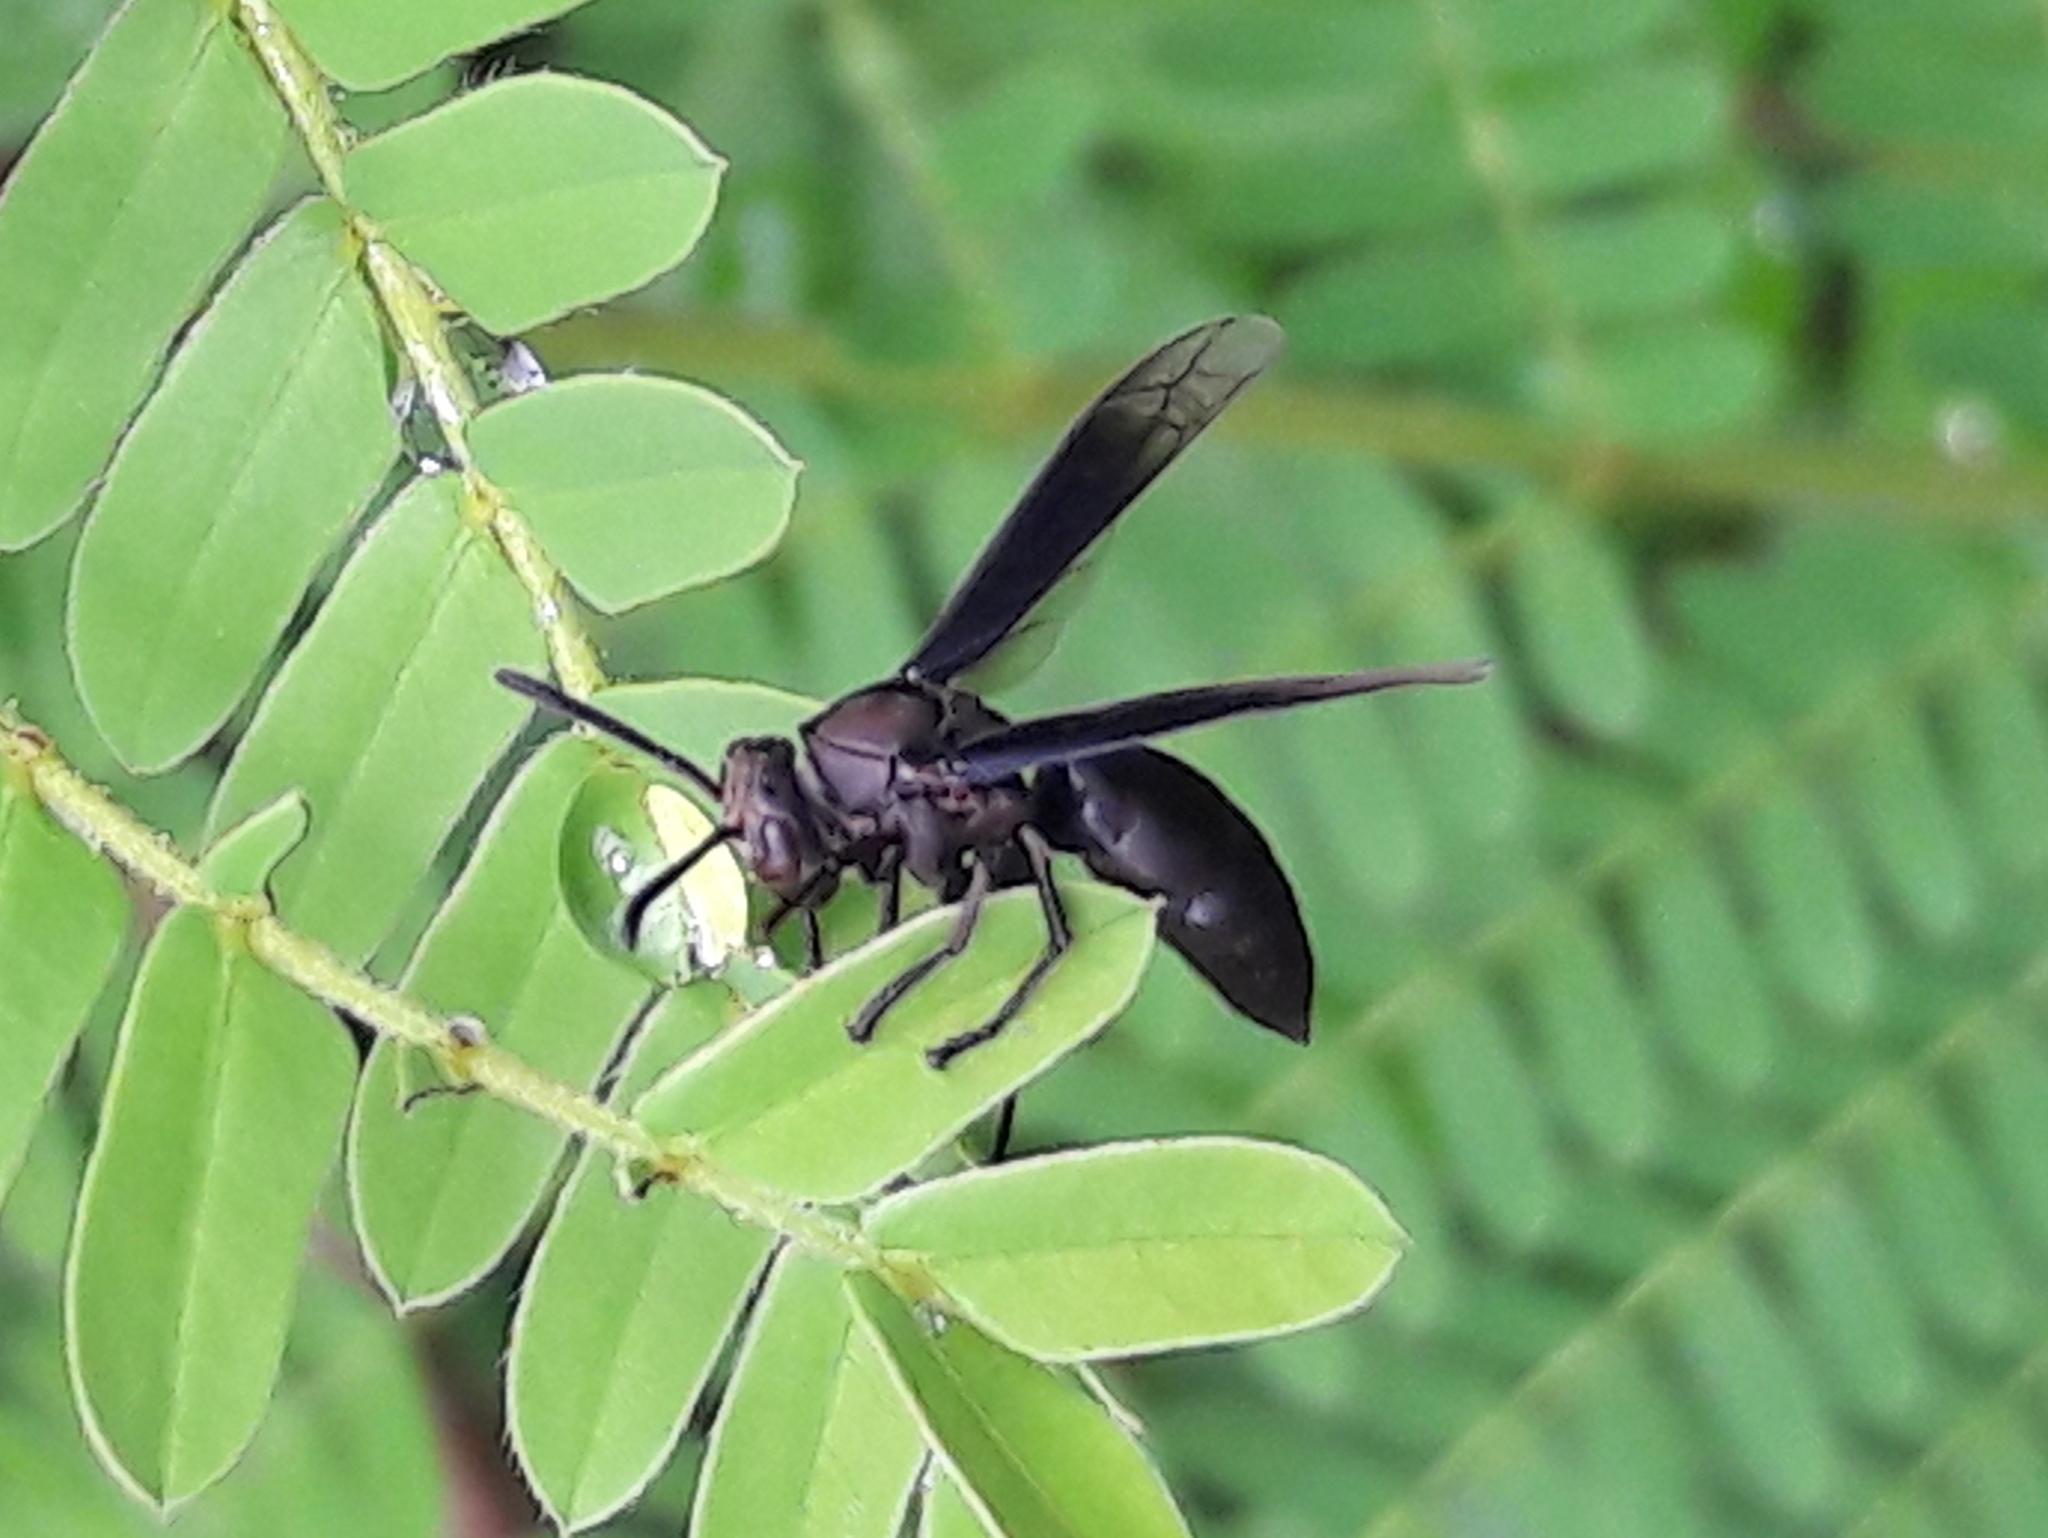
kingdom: Animalia
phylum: Arthropoda
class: Insecta
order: Hymenoptera
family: Vespidae
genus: Parachartergus
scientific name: Parachartergus fraternus
